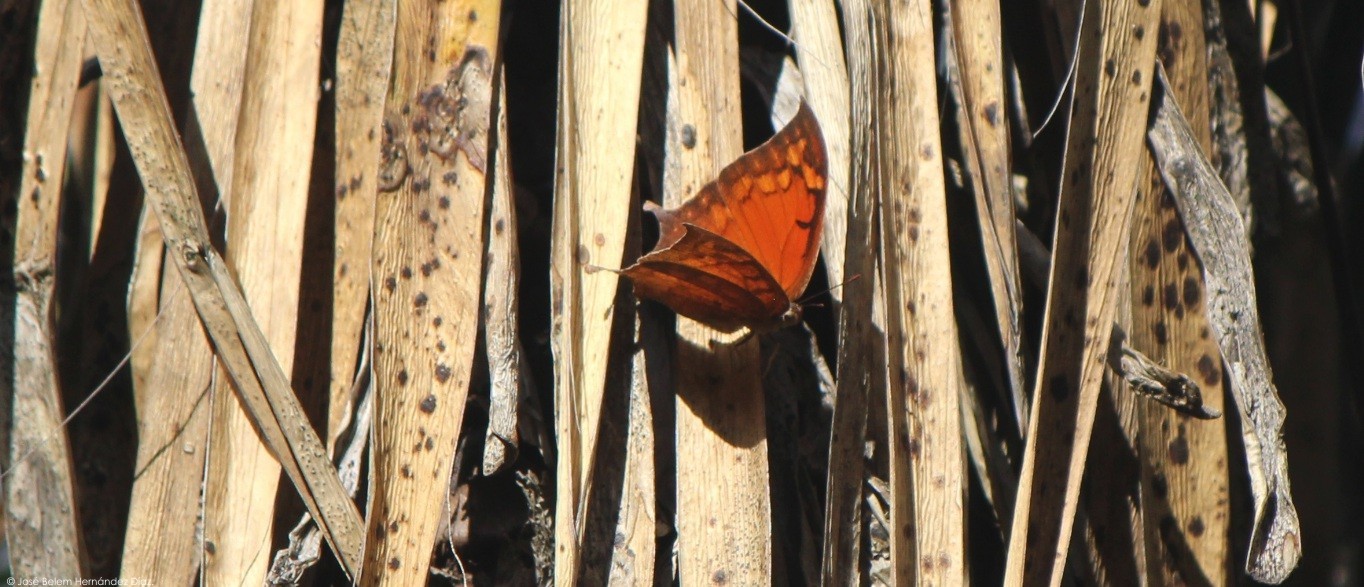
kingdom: Animalia
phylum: Arthropoda
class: Insecta
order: Lepidoptera
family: Nymphalidae
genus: Anaea
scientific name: Anaea aidea
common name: Tropical leafwing
